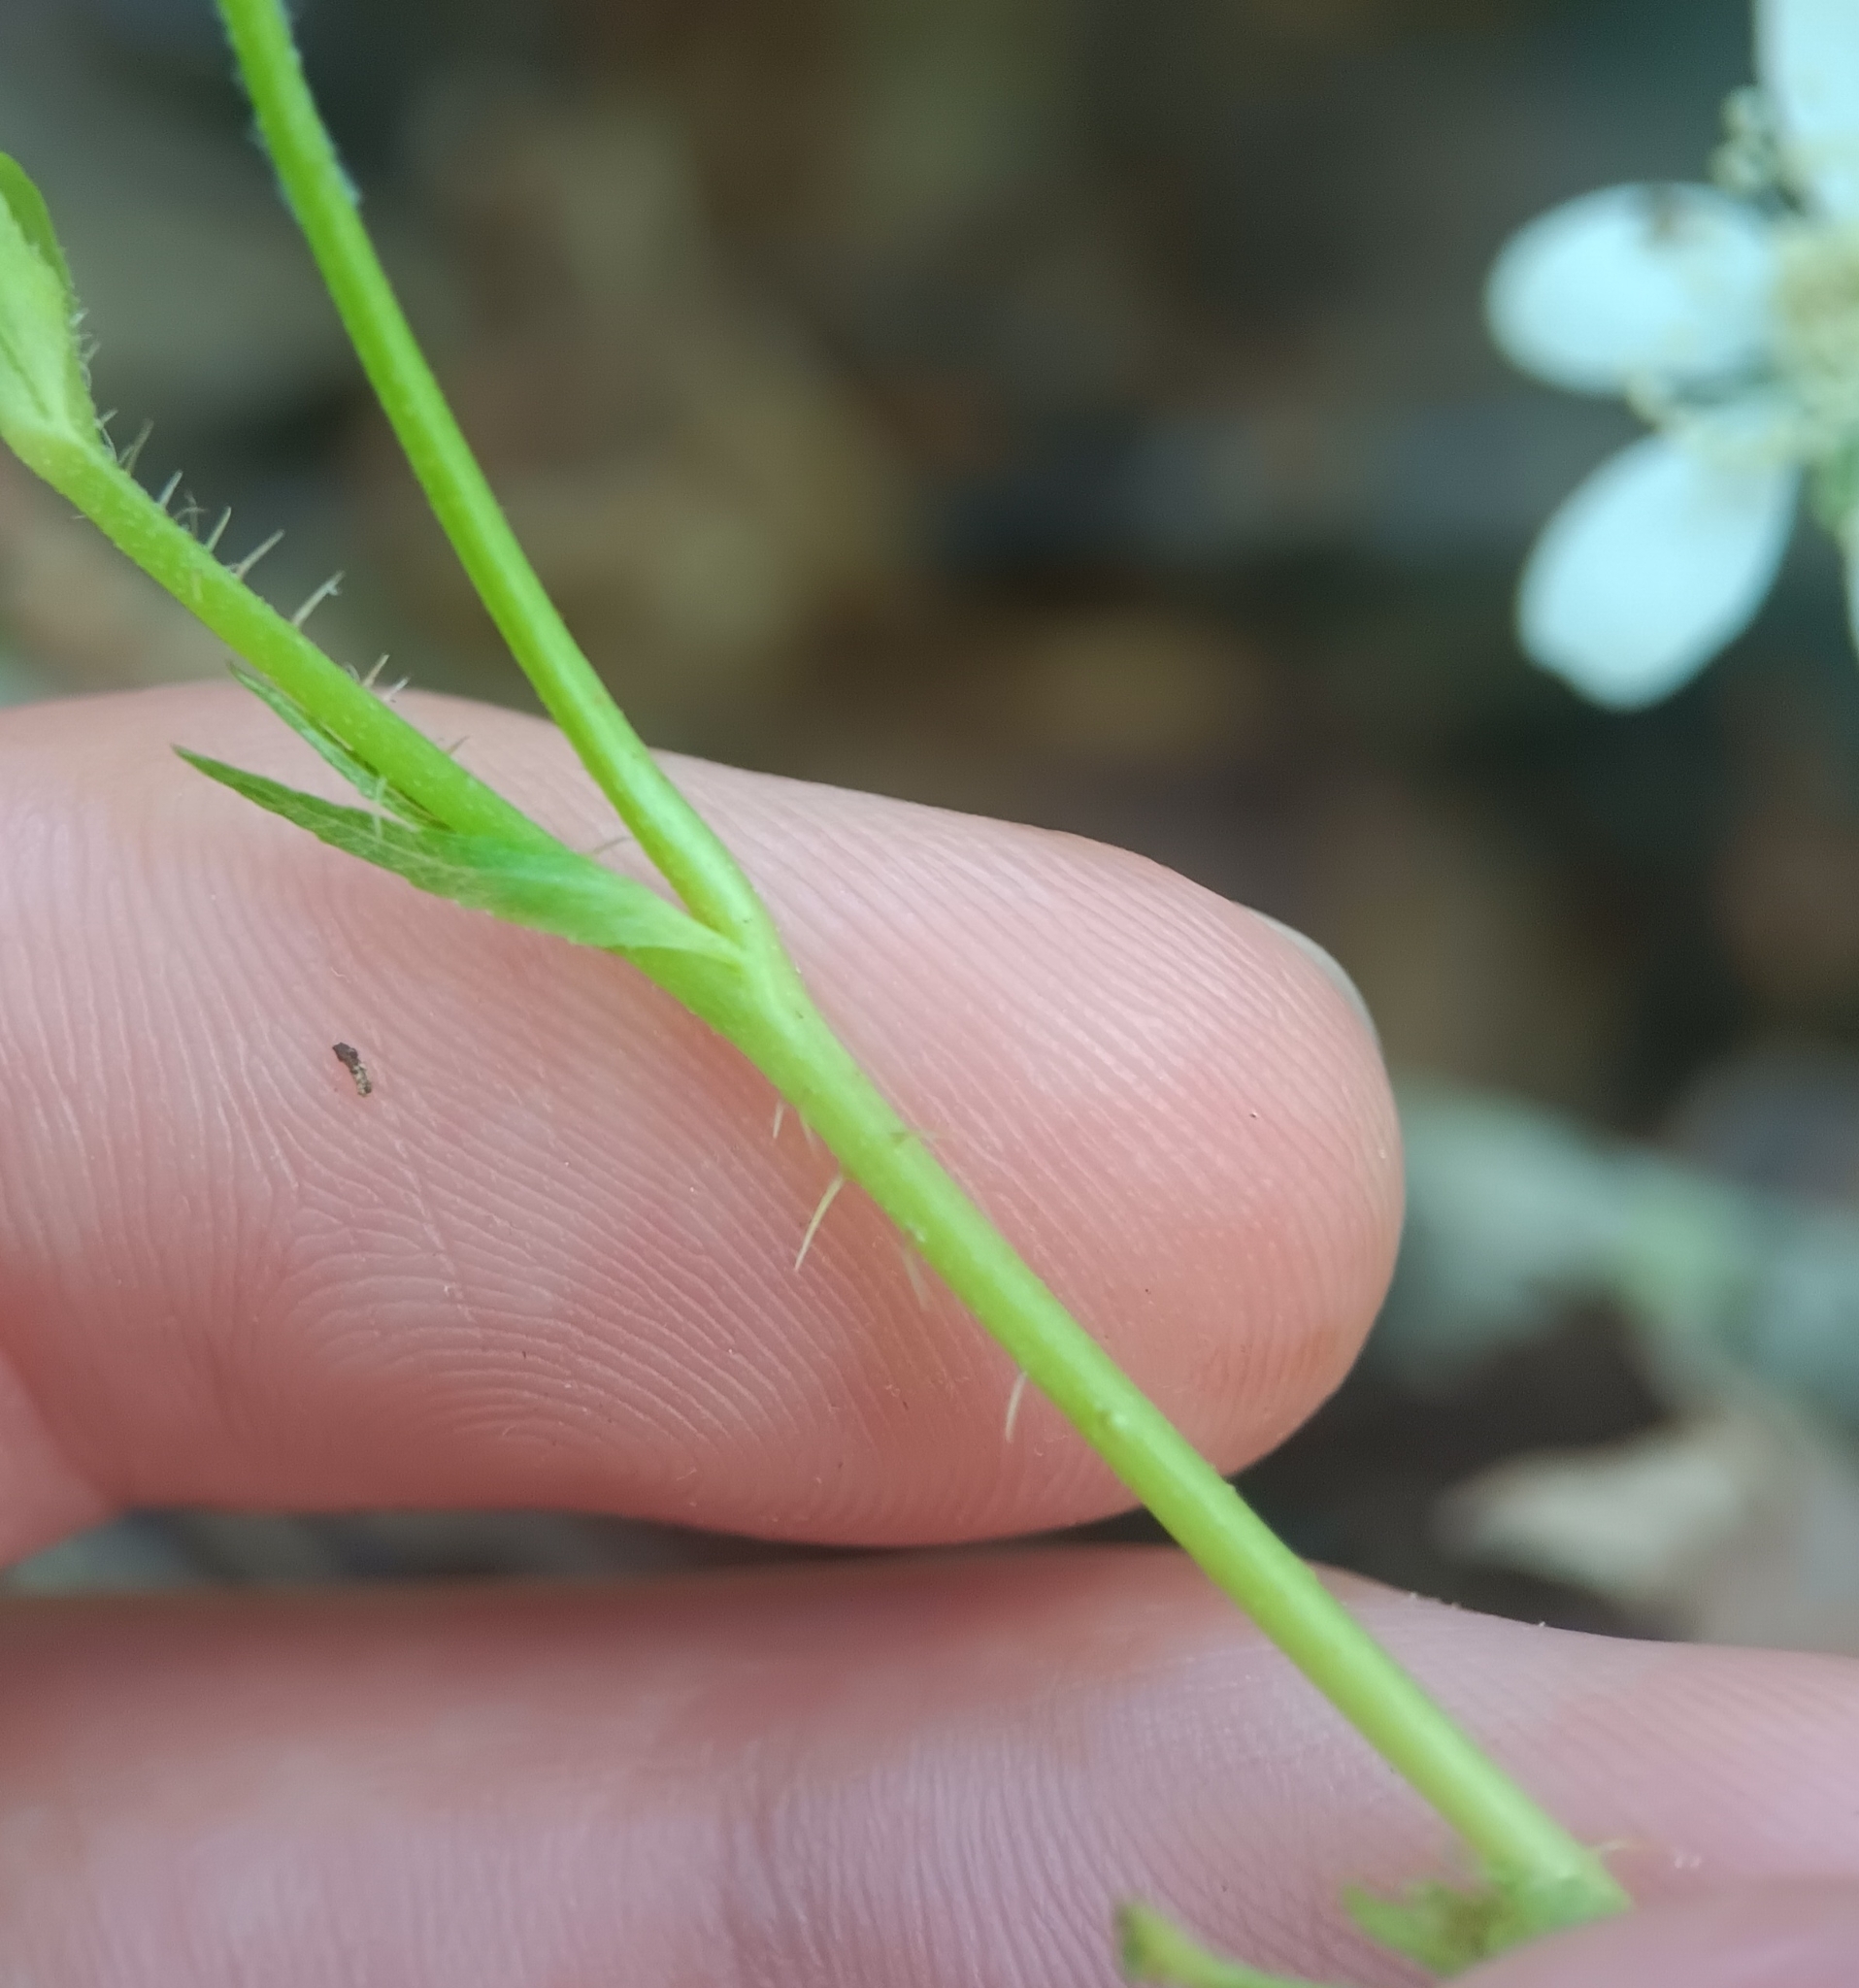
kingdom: Plantae
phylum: Tracheophyta
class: Magnoliopsida
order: Rosales
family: Rosaceae
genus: Rubus
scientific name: Rubus hispidus
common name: Running blackberry
